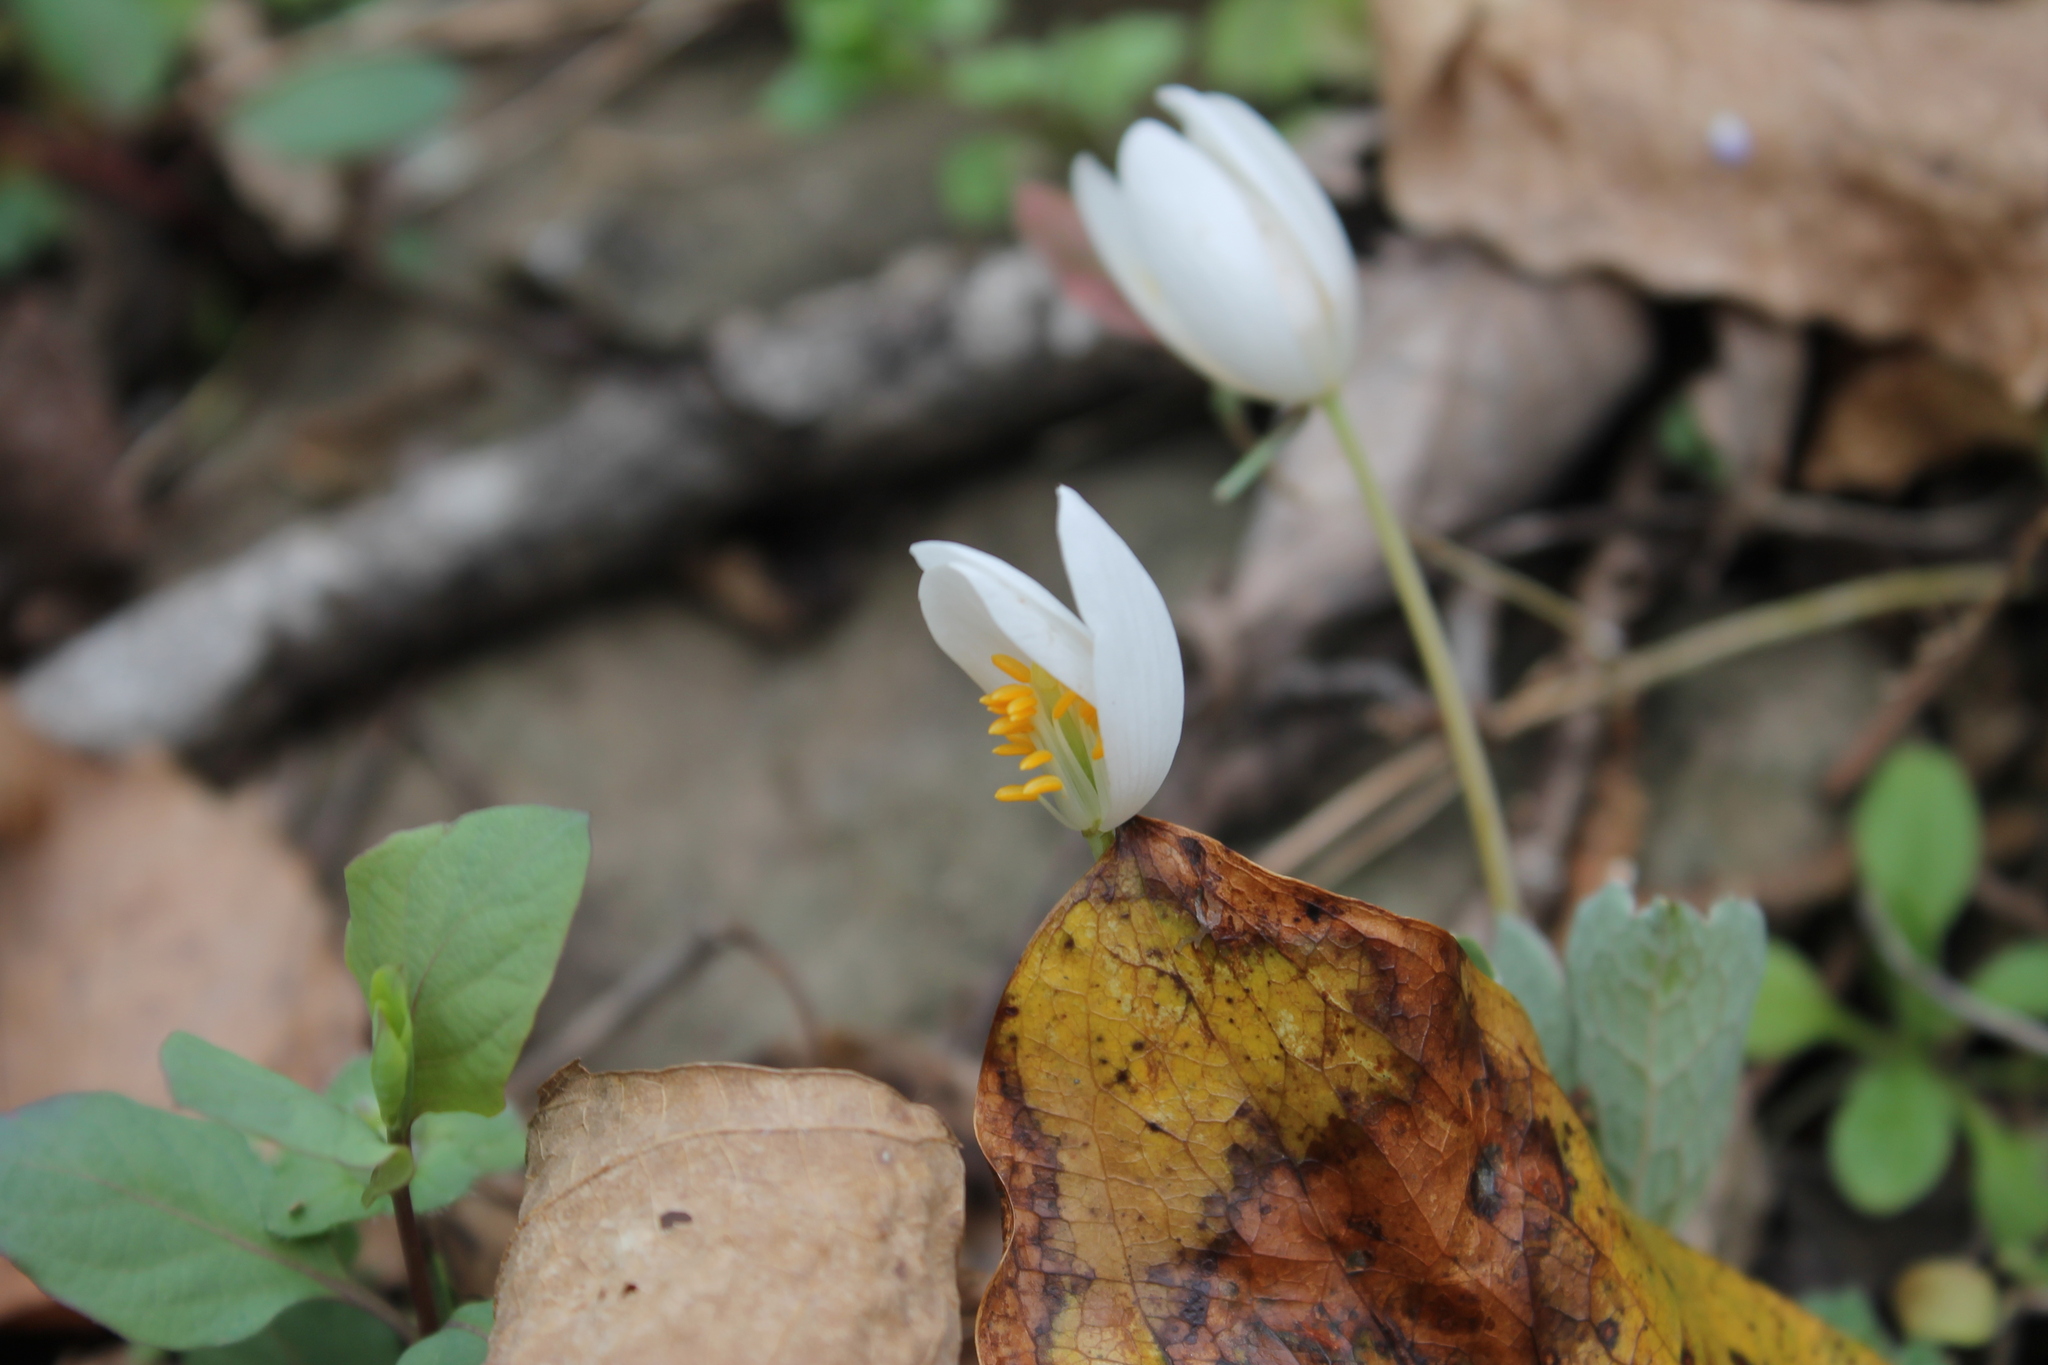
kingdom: Plantae
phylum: Tracheophyta
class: Magnoliopsida
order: Ranunculales
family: Papaveraceae
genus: Sanguinaria
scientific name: Sanguinaria canadensis
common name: Bloodroot
